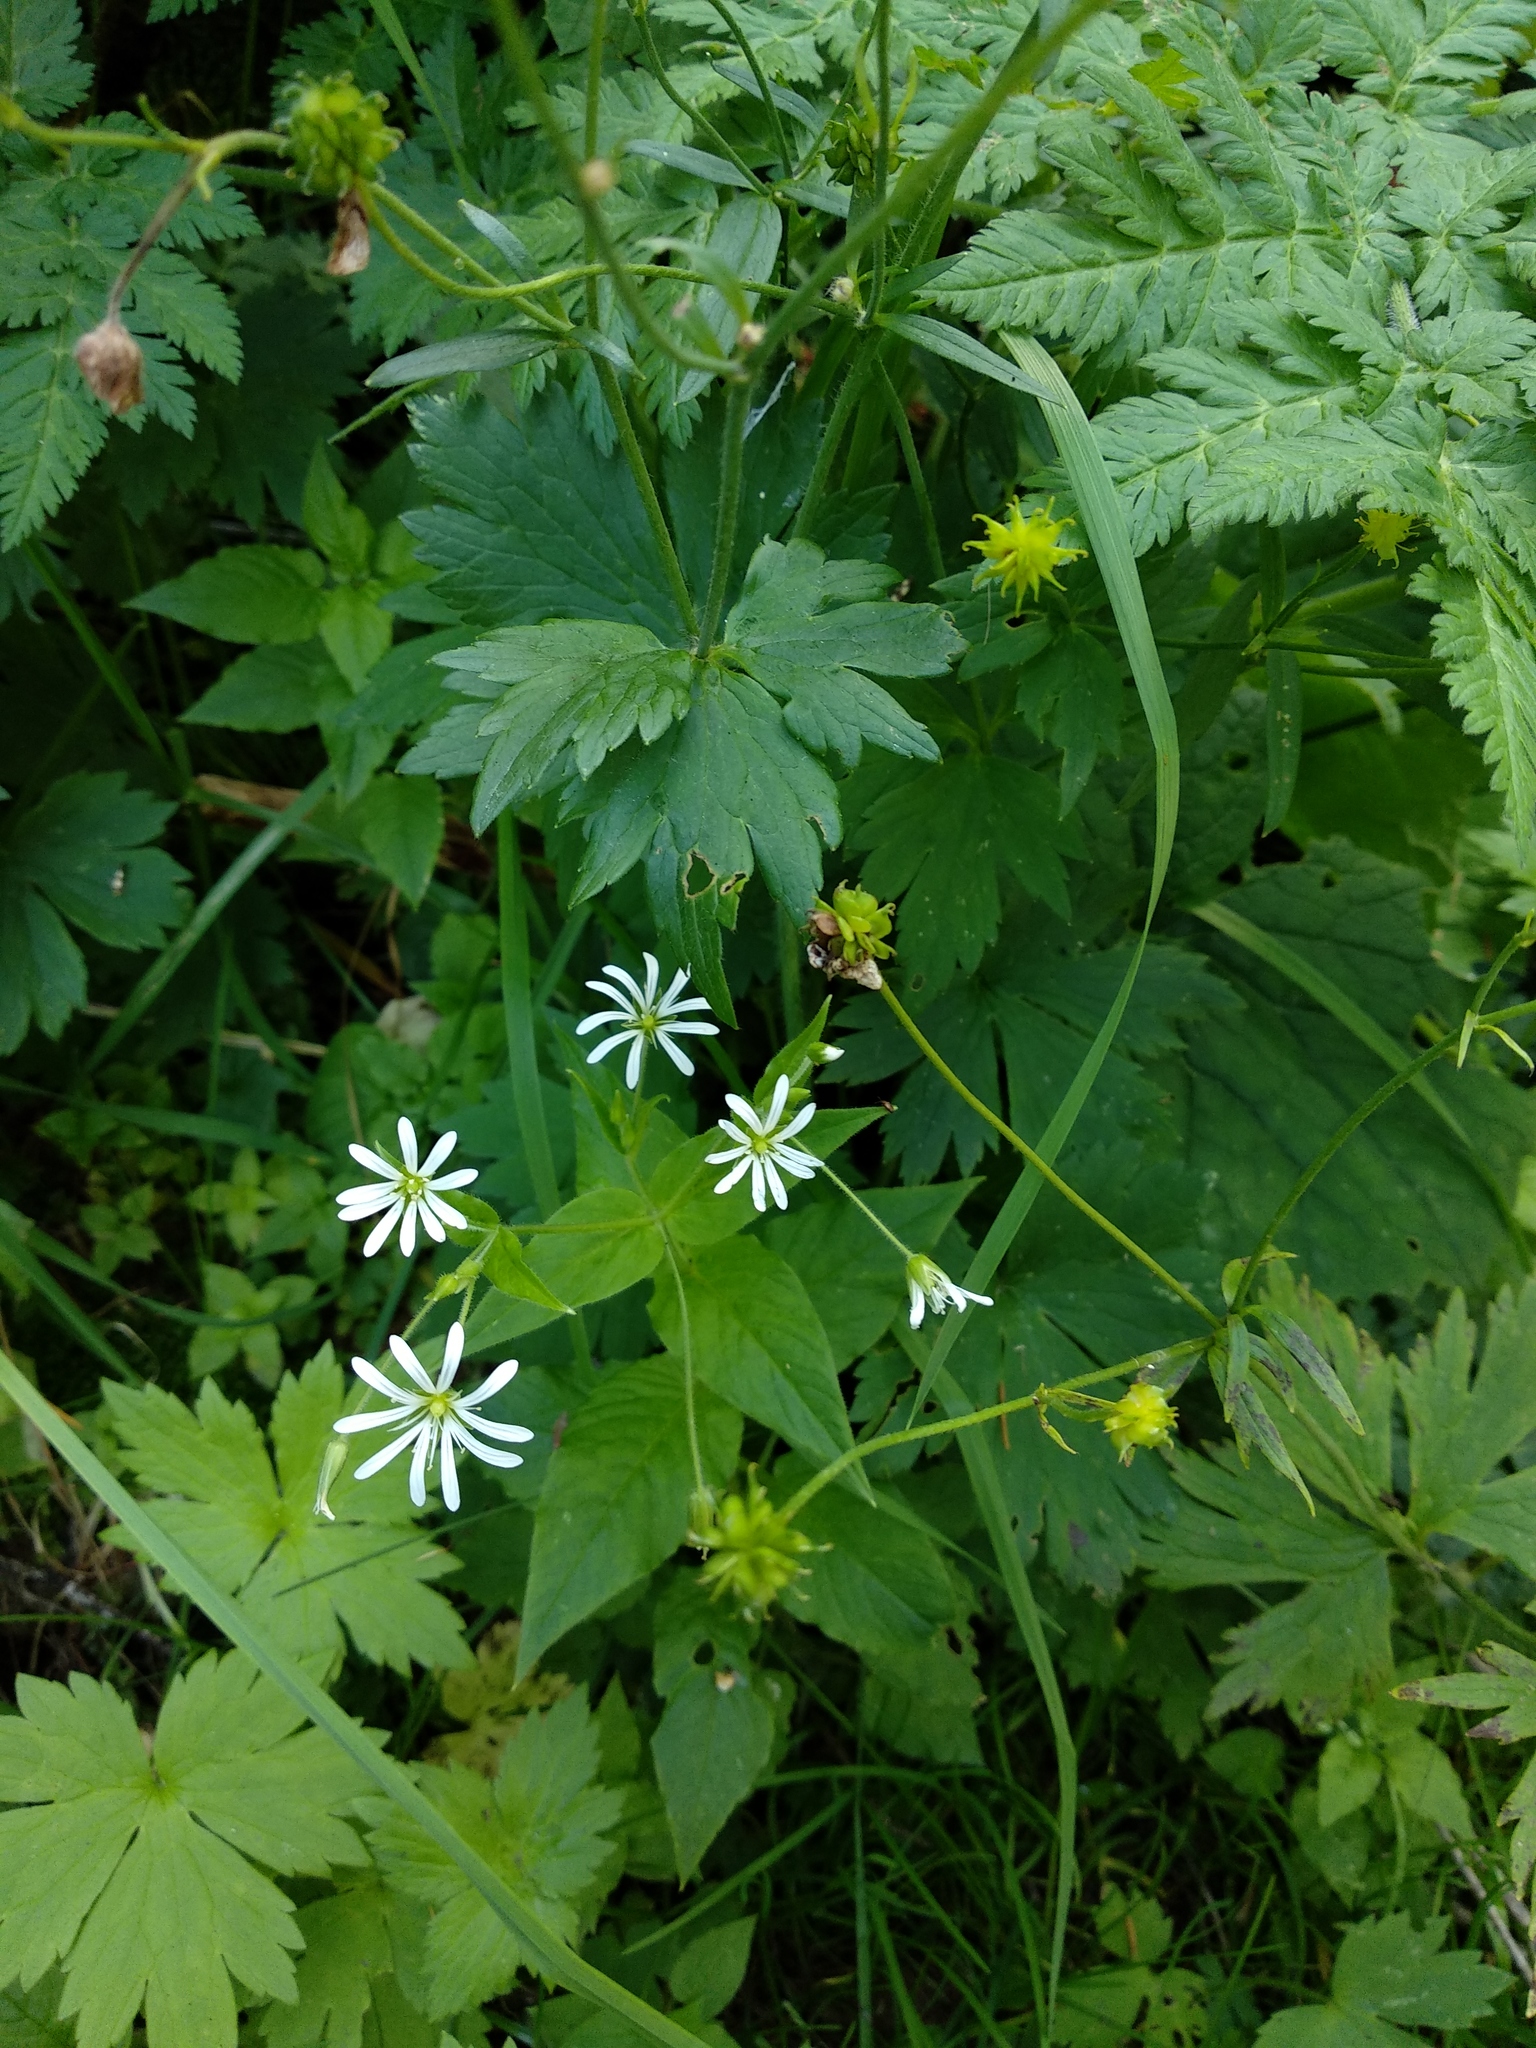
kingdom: Plantae
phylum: Tracheophyta
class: Magnoliopsida
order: Caryophyllales
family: Caryophyllaceae
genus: Stellaria
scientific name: Stellaria nemorum
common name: Wood stitchwort
